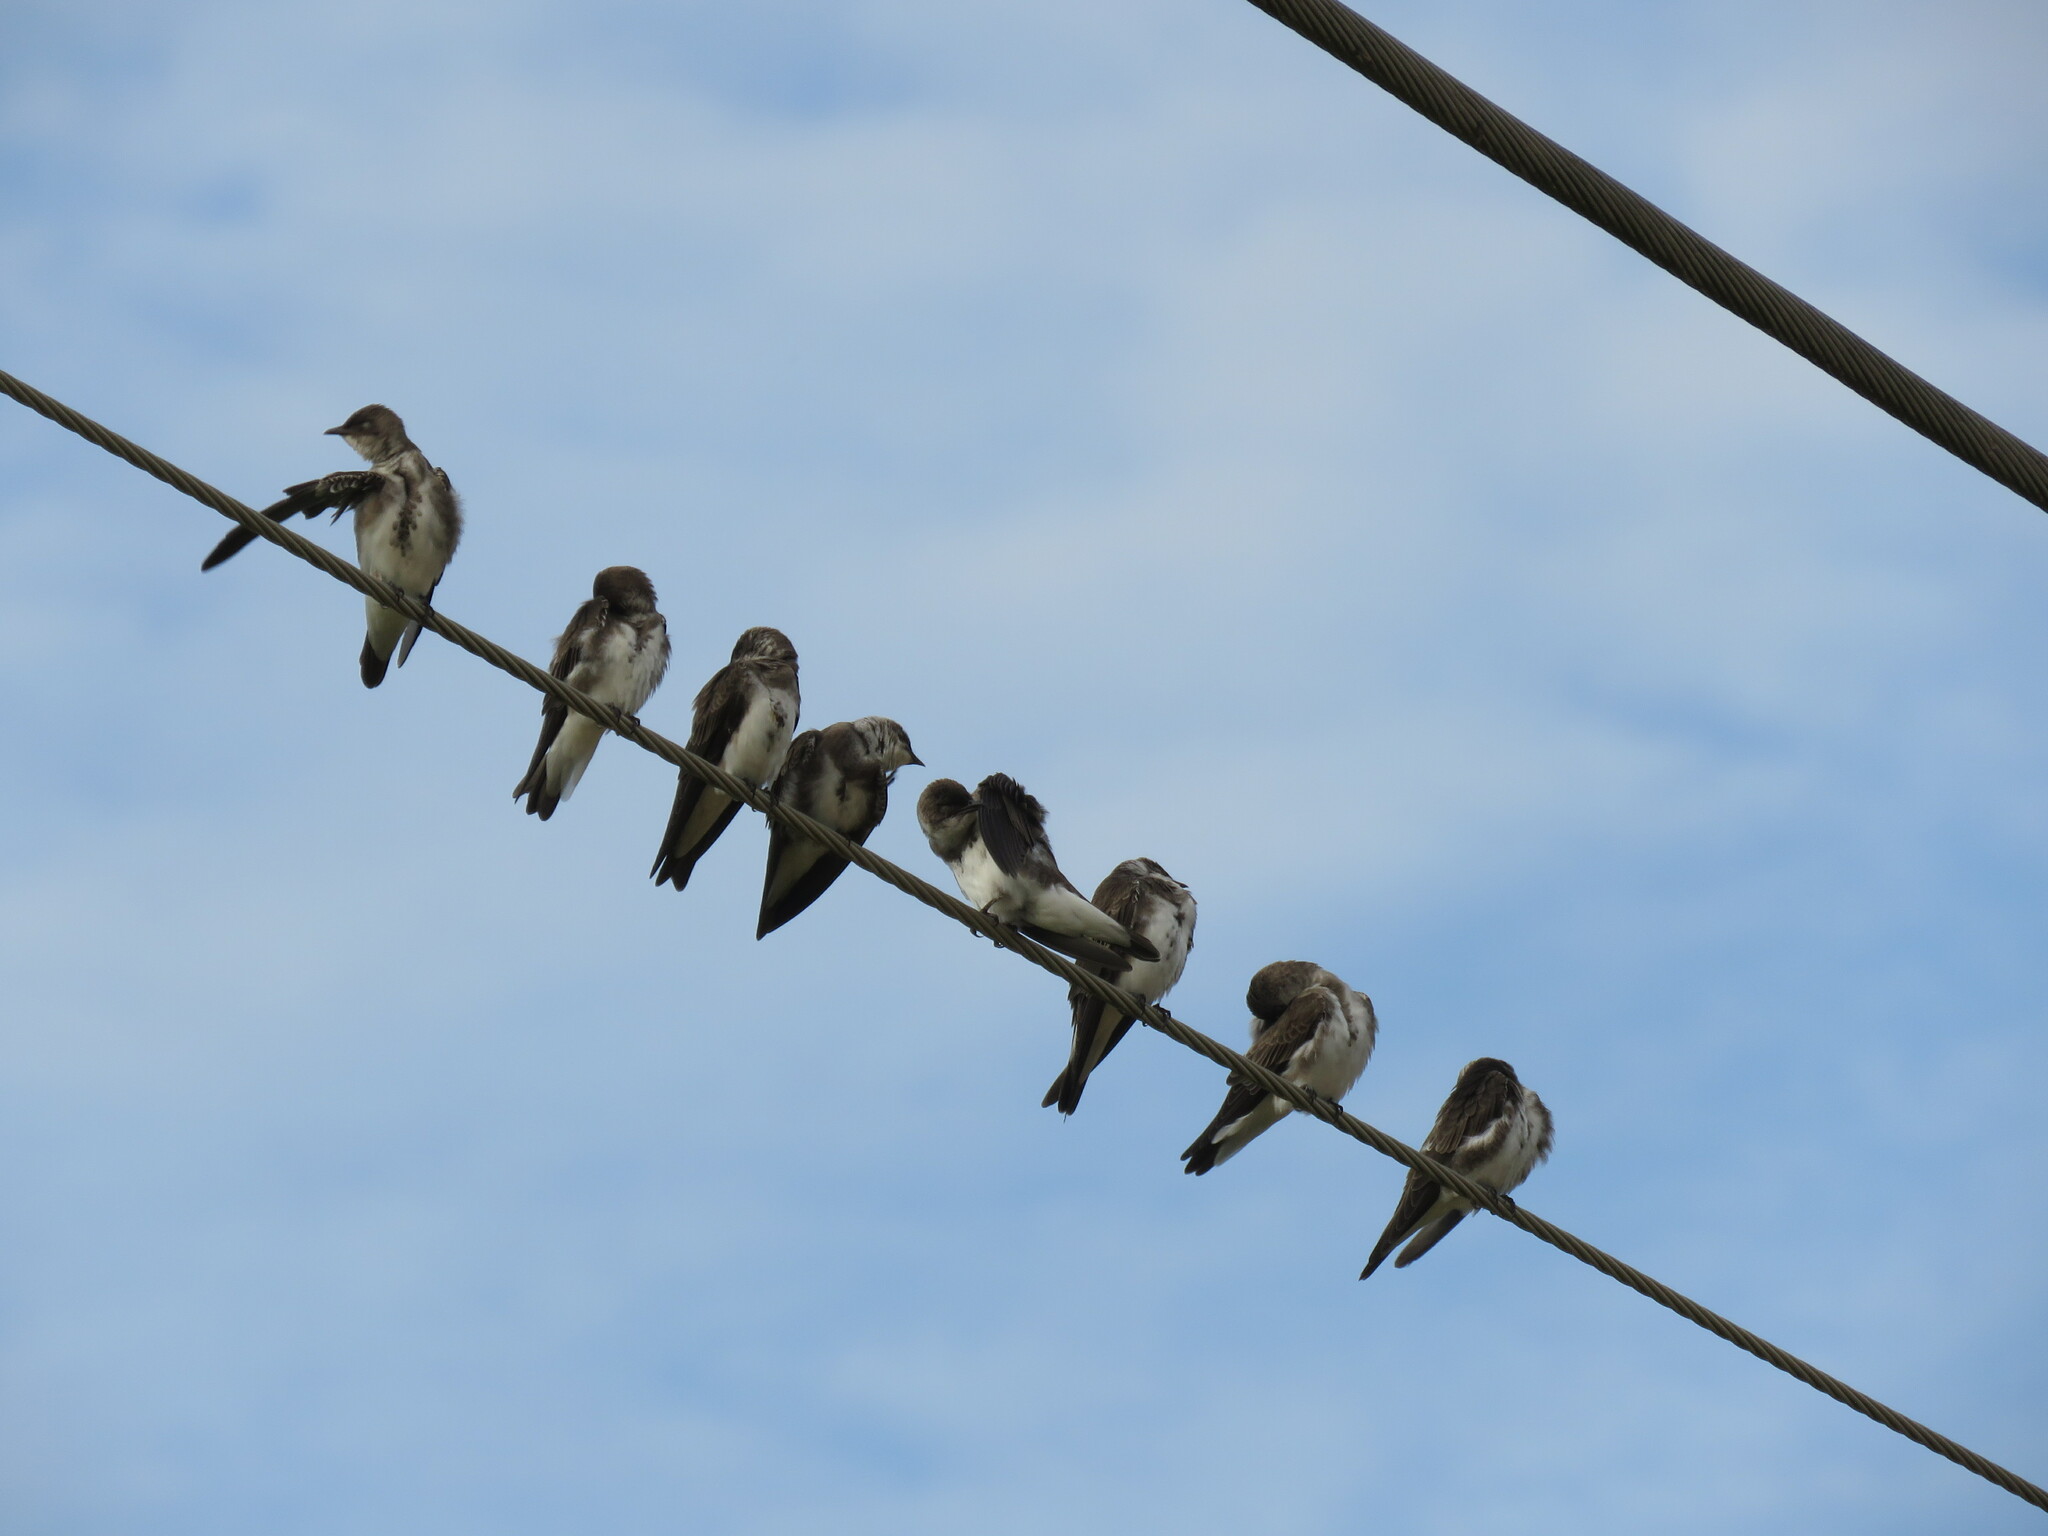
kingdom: Animalia
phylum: Chordata
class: Aves
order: Passeriformes
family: Hirundinidae
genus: Riparia
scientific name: Riparia riparia
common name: Sand martin
